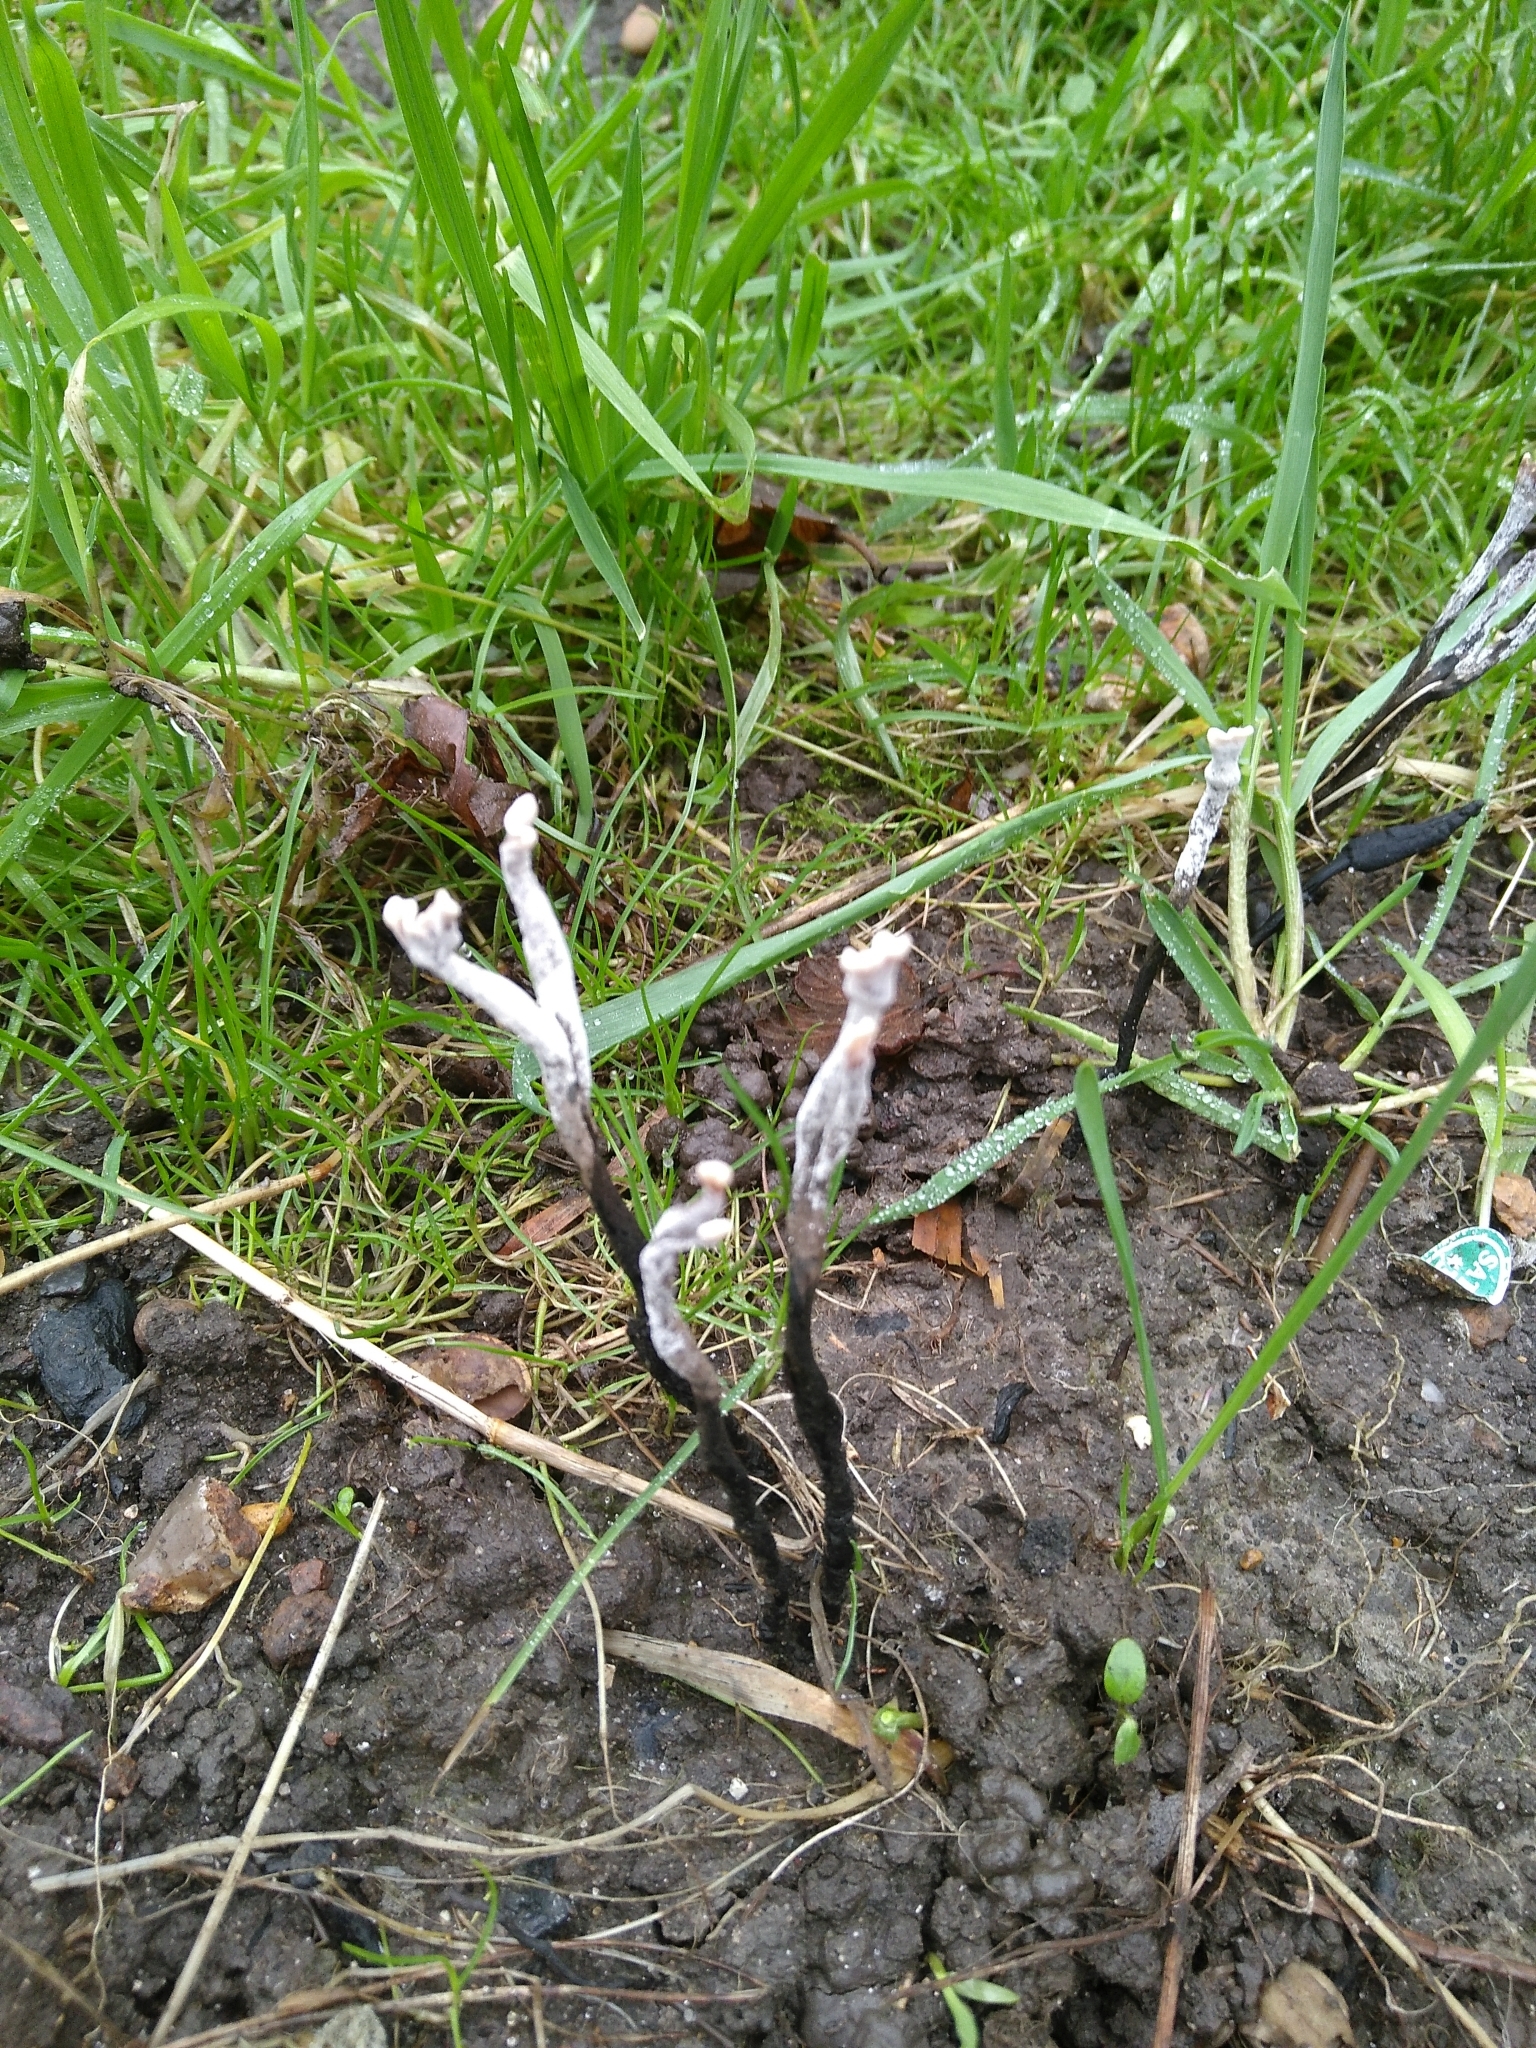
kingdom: Fungi
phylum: Ascomycota
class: Sordariomycetes
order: Xylariales
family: Xylariaceae
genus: Xylaria
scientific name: Xylaria hypoxylon
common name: Candle-snuff fungus
